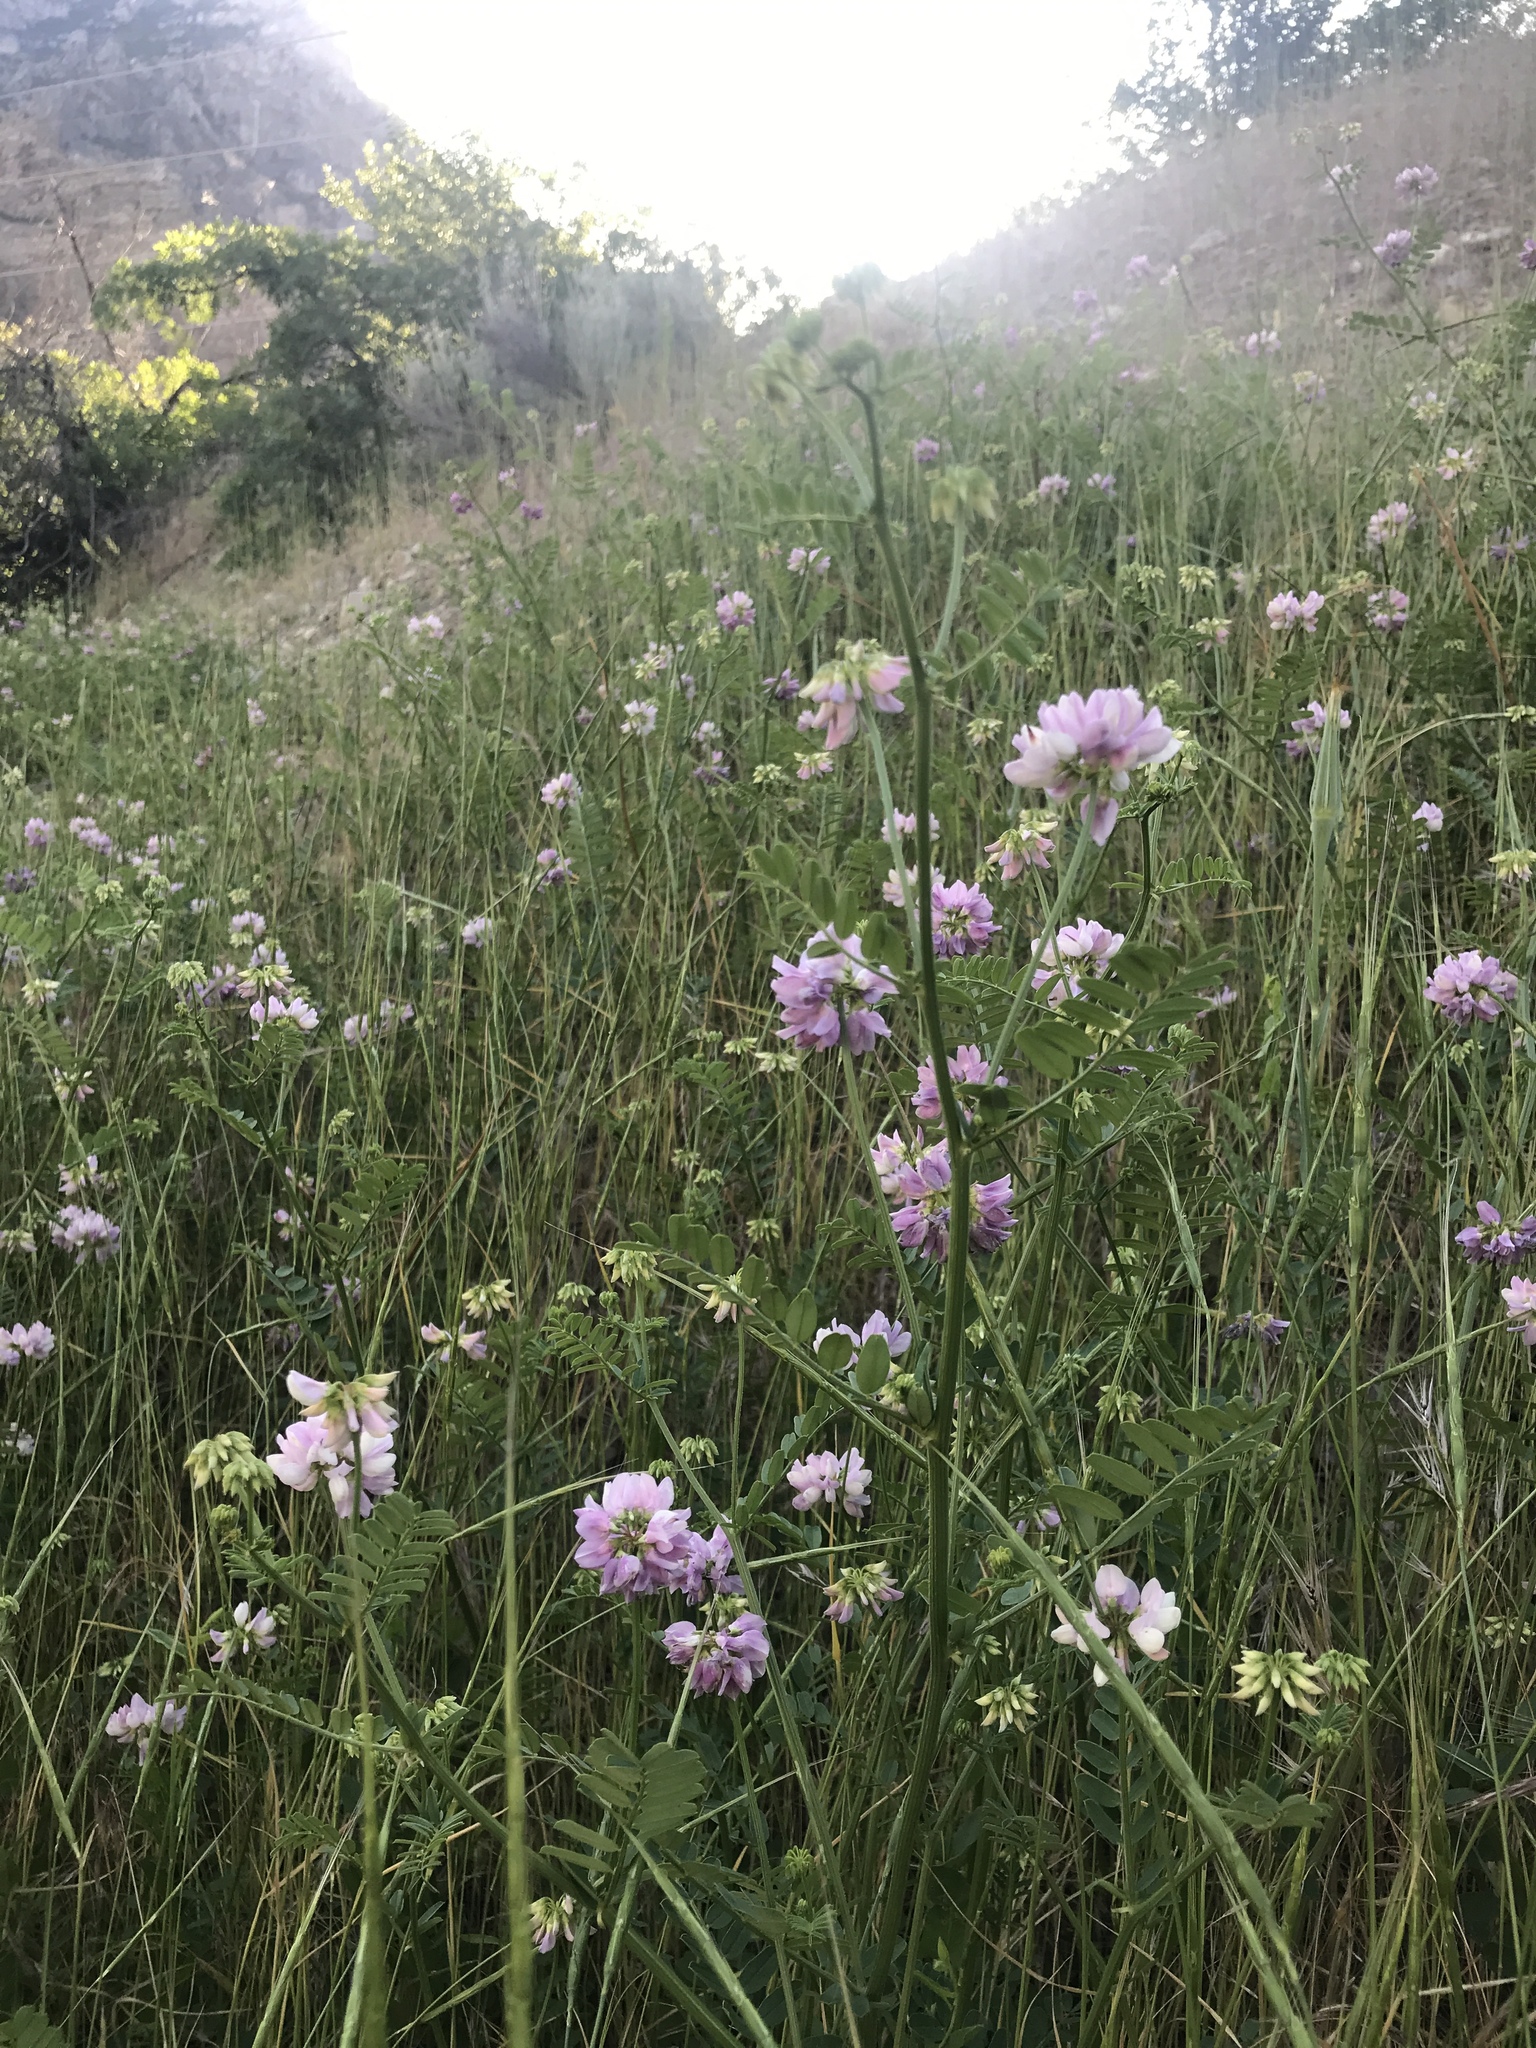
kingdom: Plantae
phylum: Tracheophyta
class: Magnoliopsida
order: Fabales
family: Fabaceae
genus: Coronilla
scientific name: Coronilla varia
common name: Crownvetch
